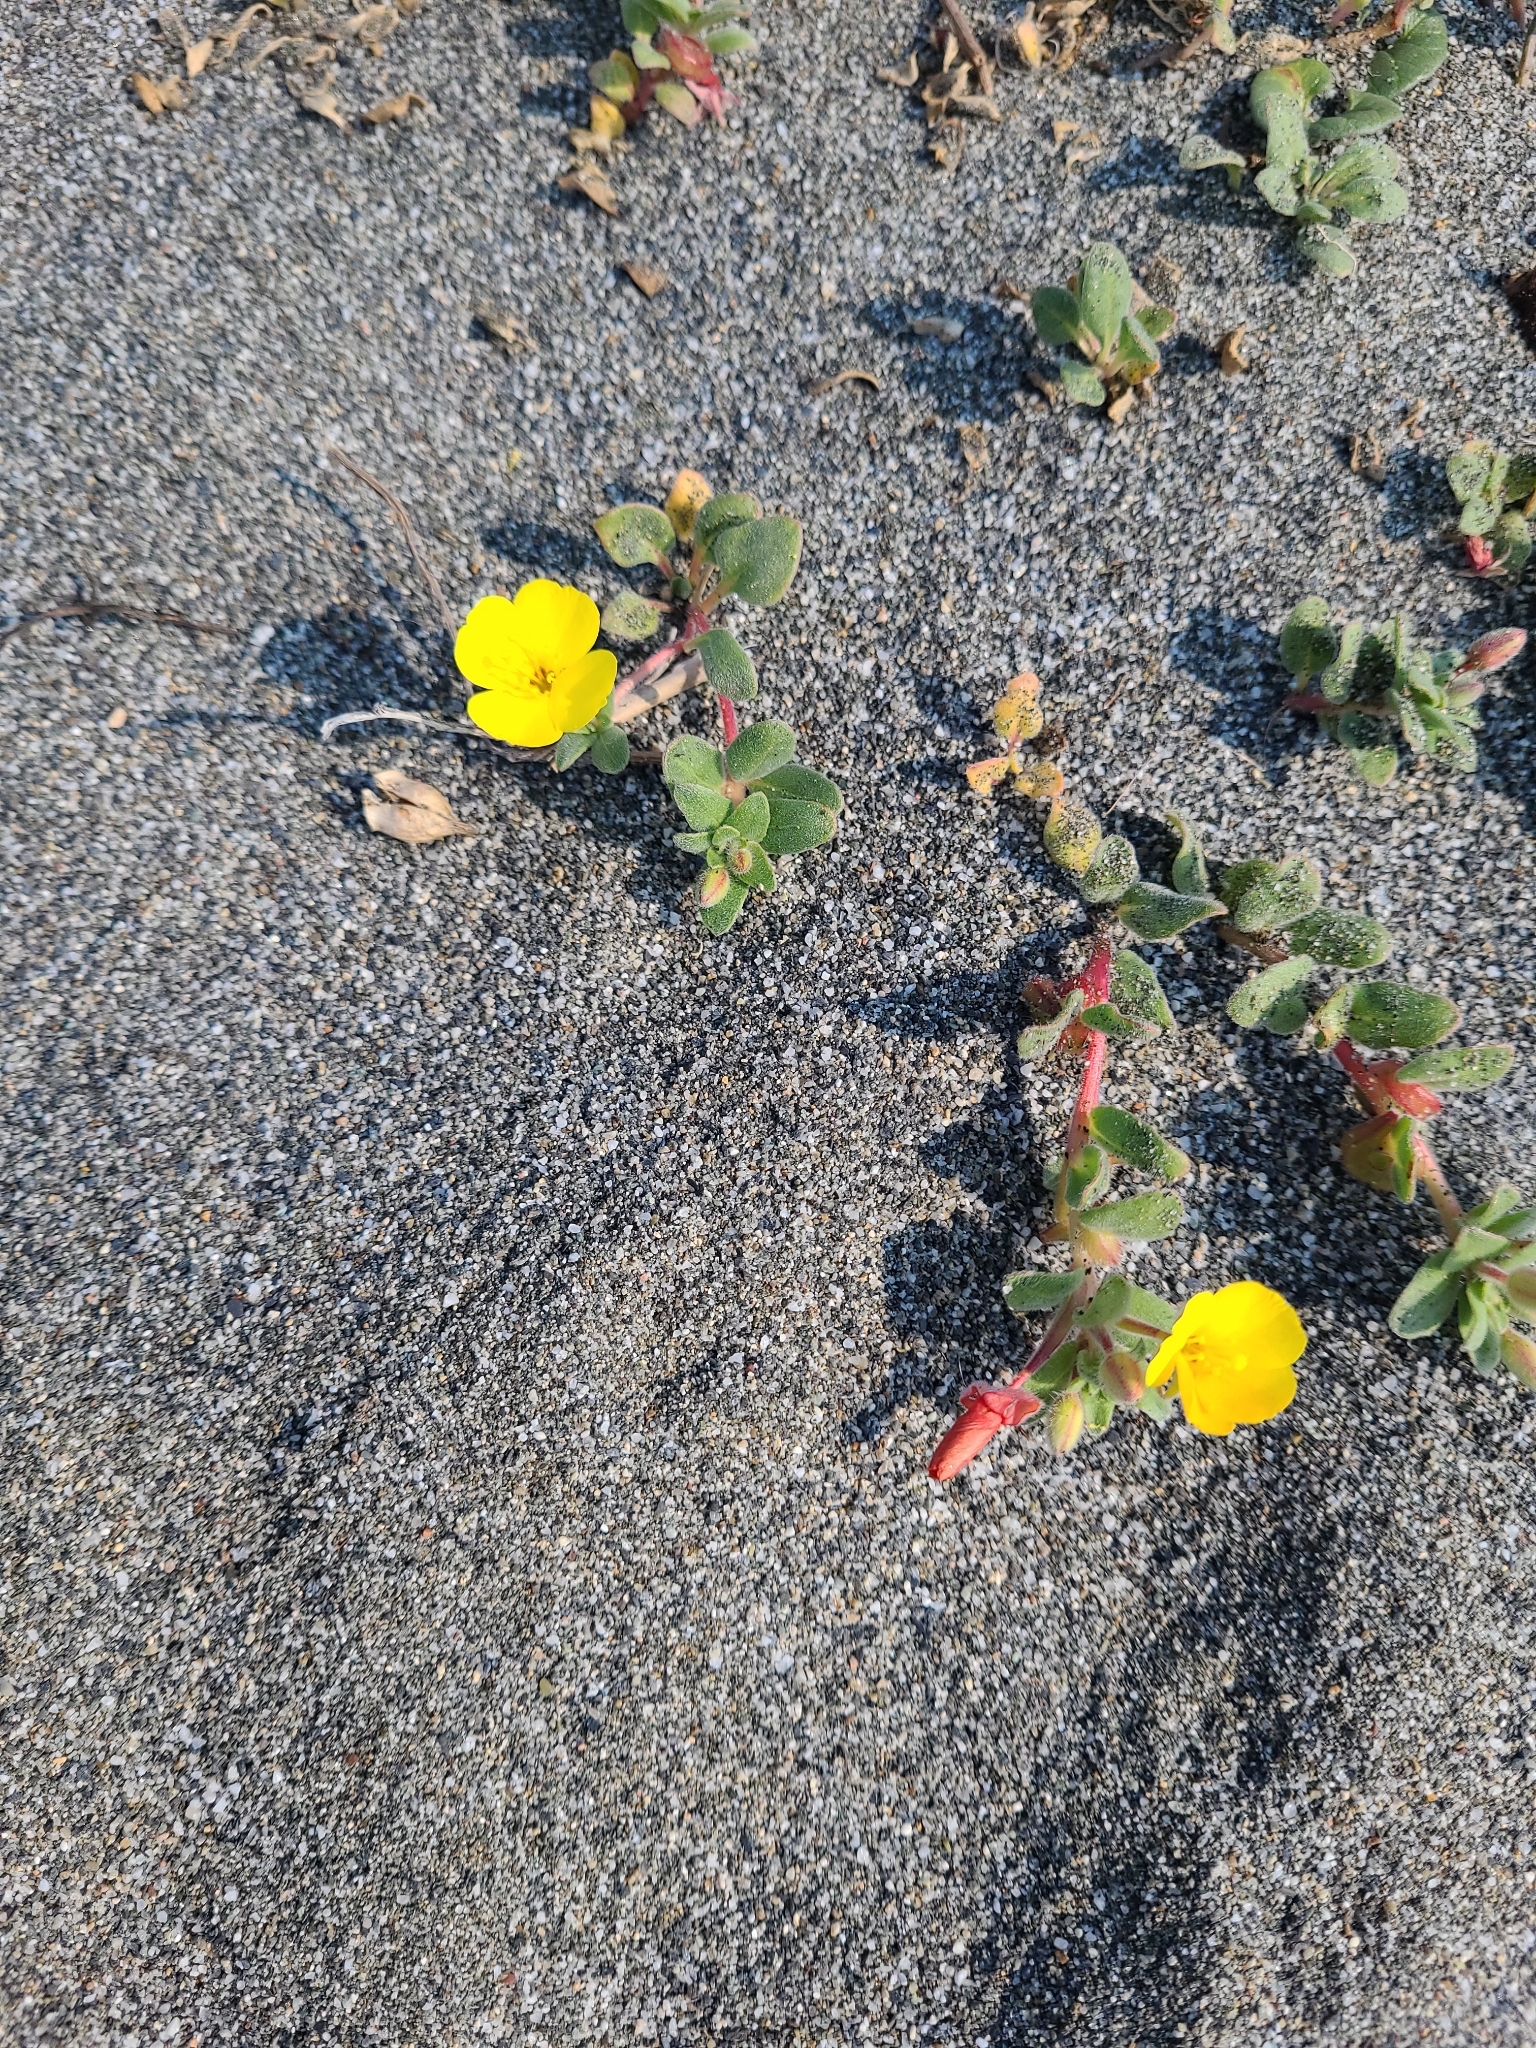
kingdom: Plantae
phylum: Tracheophyta
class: Magnoliopsida
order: Myrtales
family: Onagraceae
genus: Camissoniopsis
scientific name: Camissoniopsis cheiranthifolia
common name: Beach suncup
